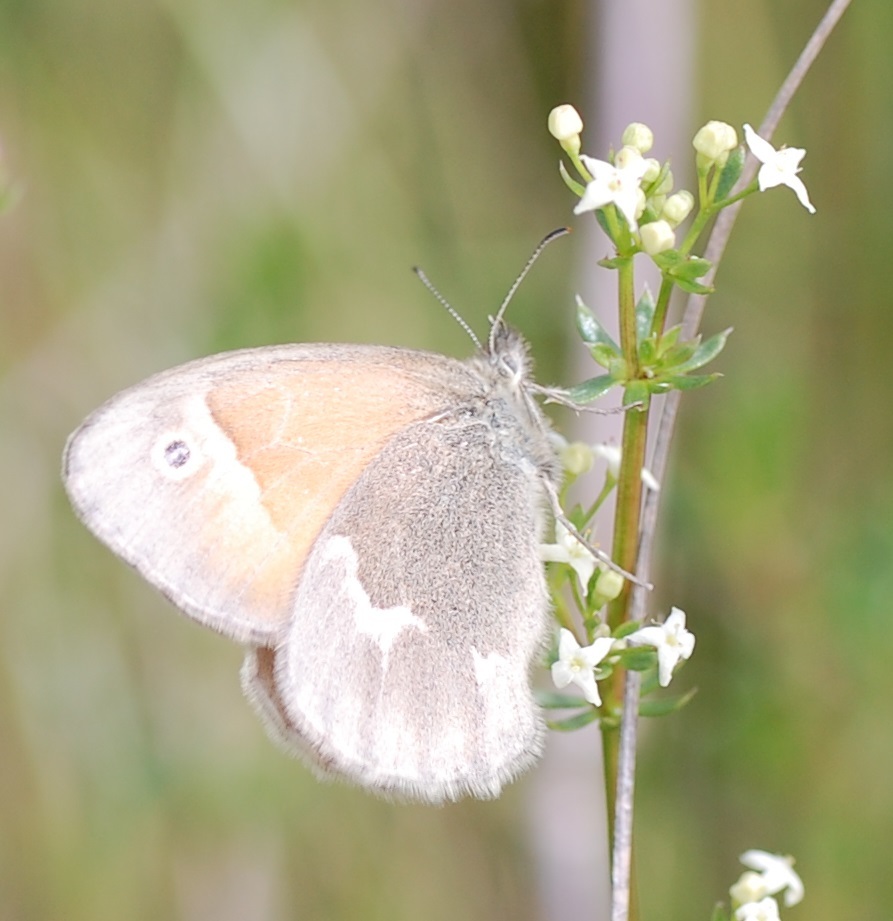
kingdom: Animalia
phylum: Arthropoda
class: Insecta
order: Lepidoptera
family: Nymphalidae
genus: Coenonympha
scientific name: Coenonympha california
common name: Common ringlet
